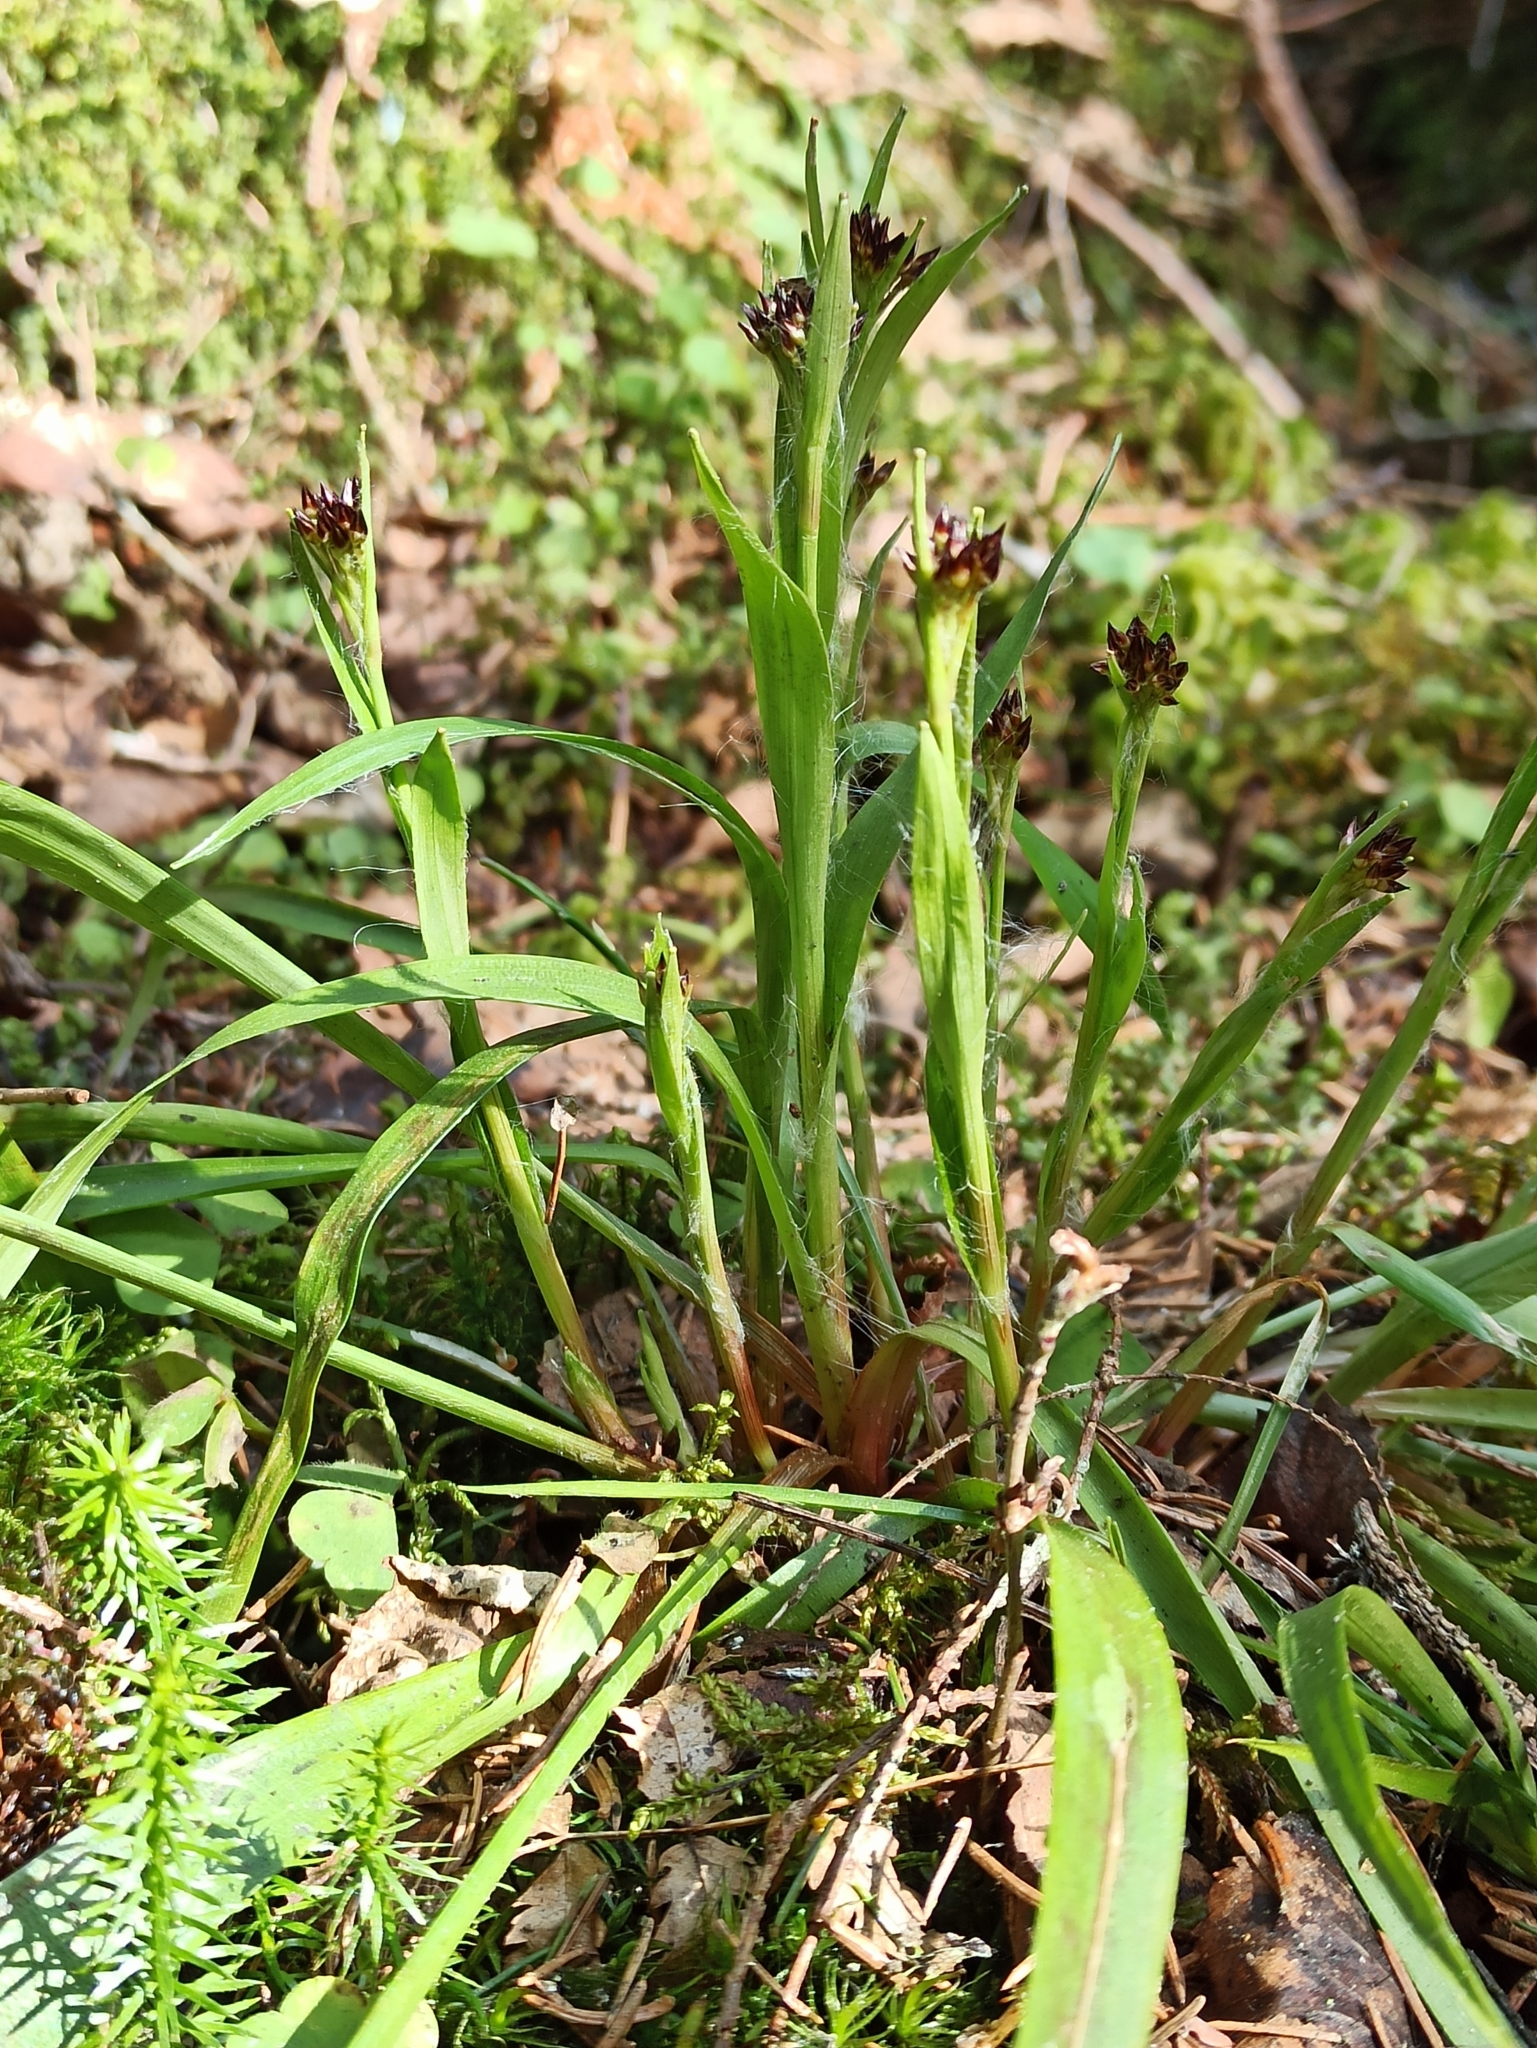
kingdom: Plantae
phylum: Tracheophyta
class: Liliopsida
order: Poales
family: Juncaceae
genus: Luzula
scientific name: Luzula pilosa
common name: Hairy wood-rush
